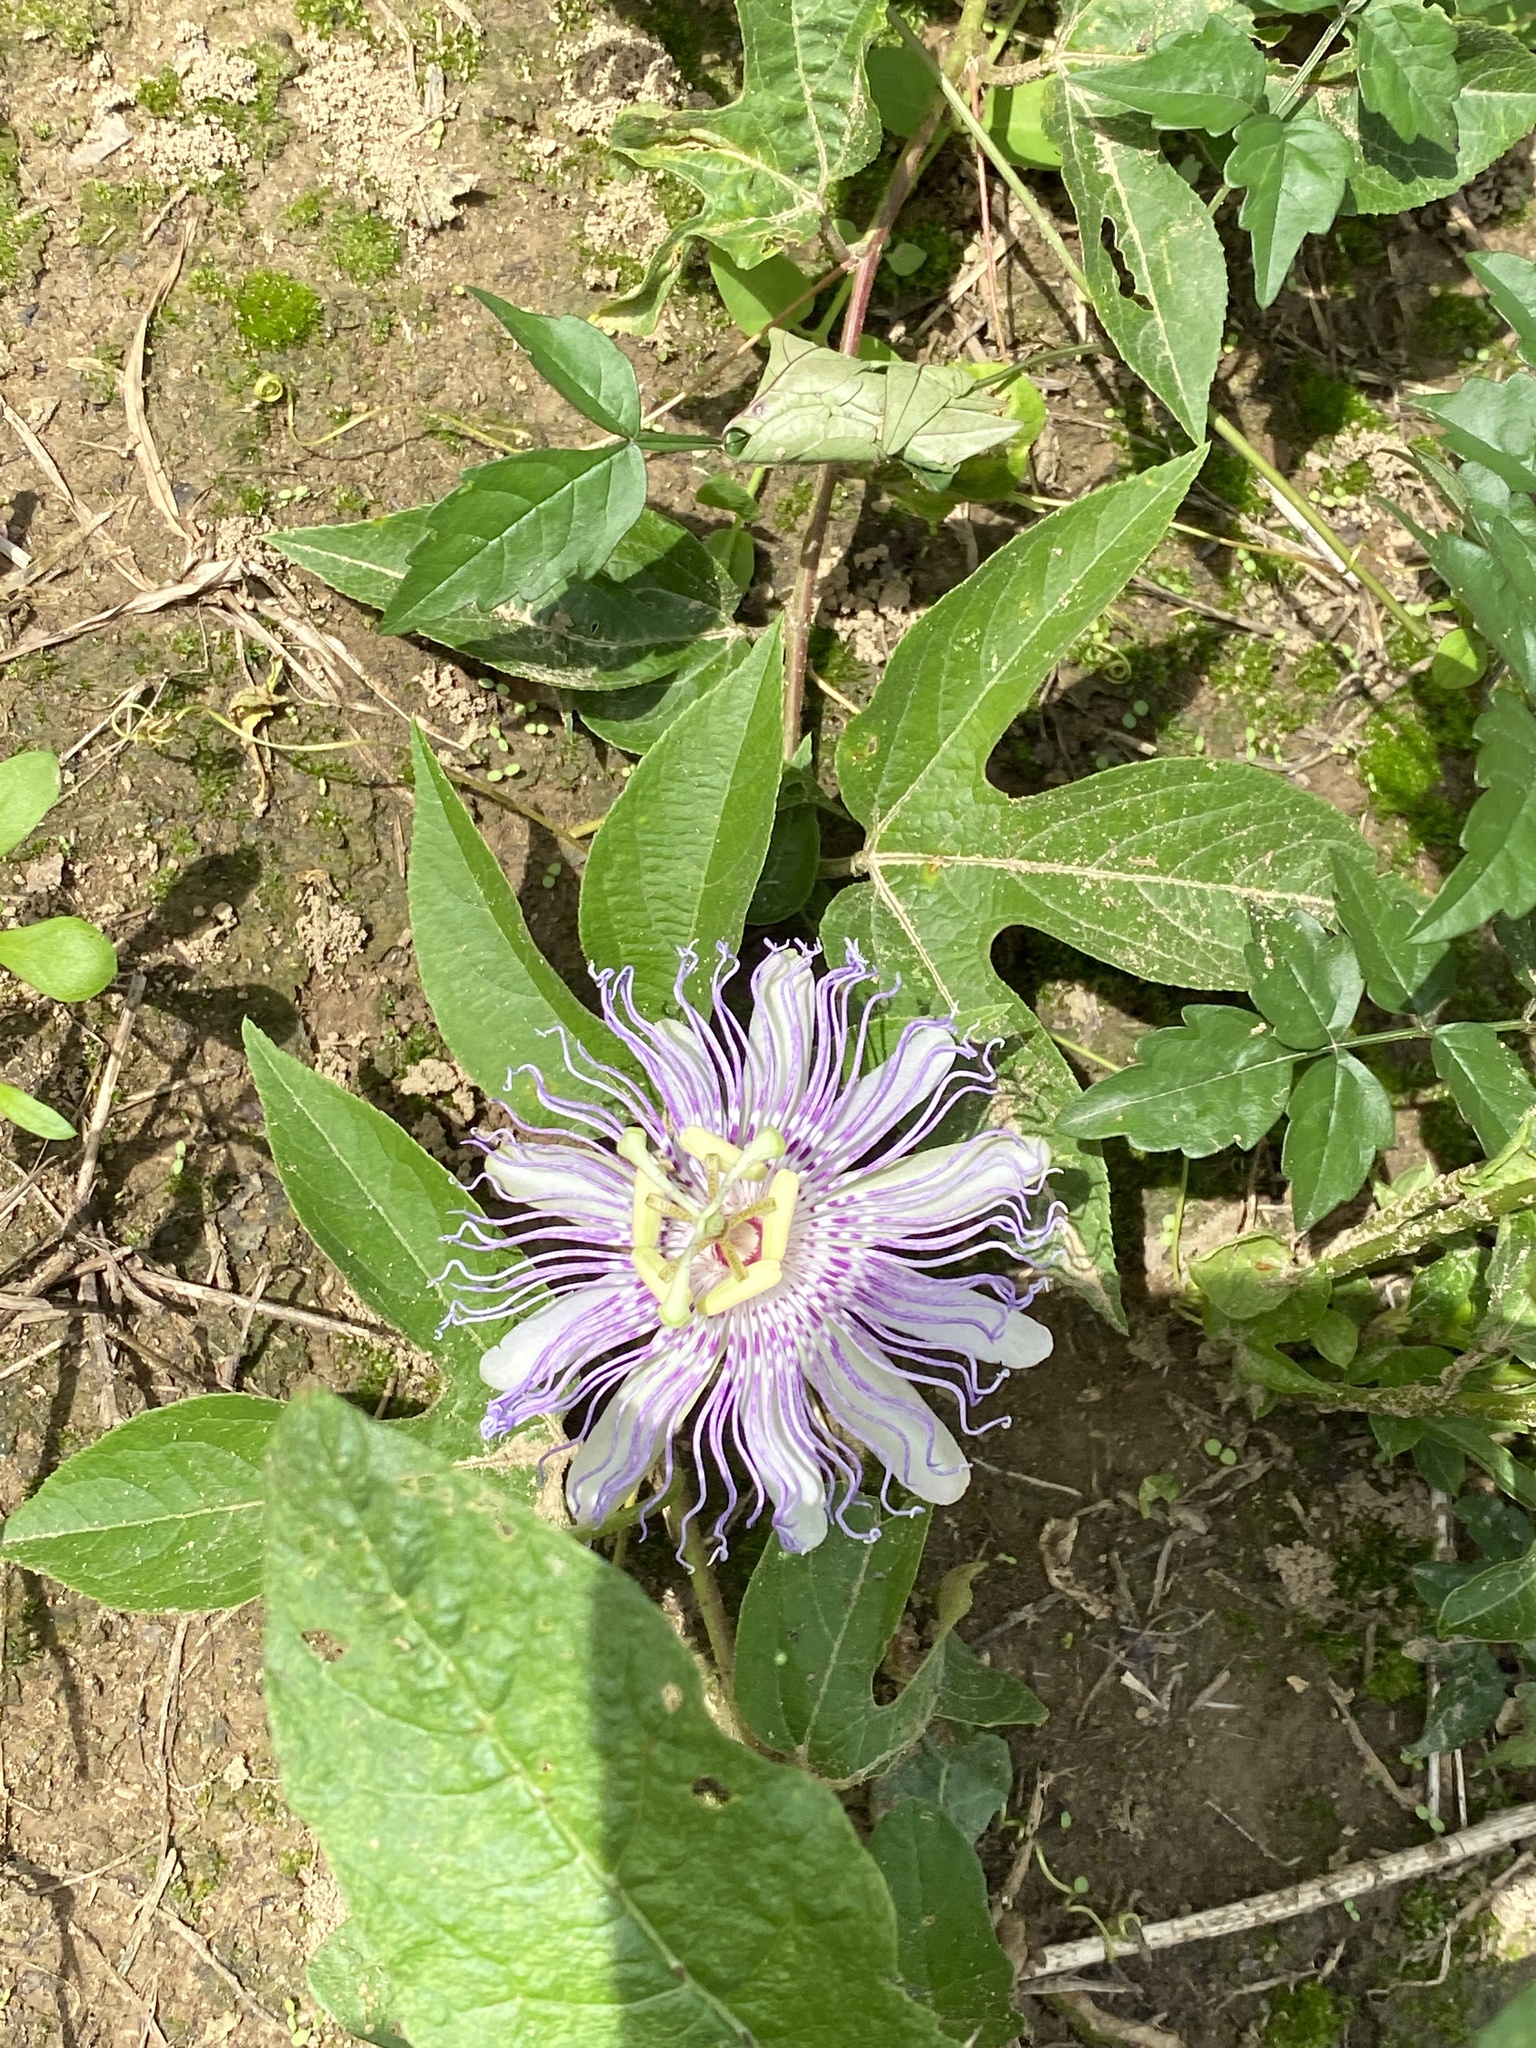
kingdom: Plantae
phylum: Tracheophyta
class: Magnoliopsida
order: Malpighiales
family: Passifloraceae
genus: Passiflora
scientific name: Passiflora incarnata
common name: Apricot-vine
